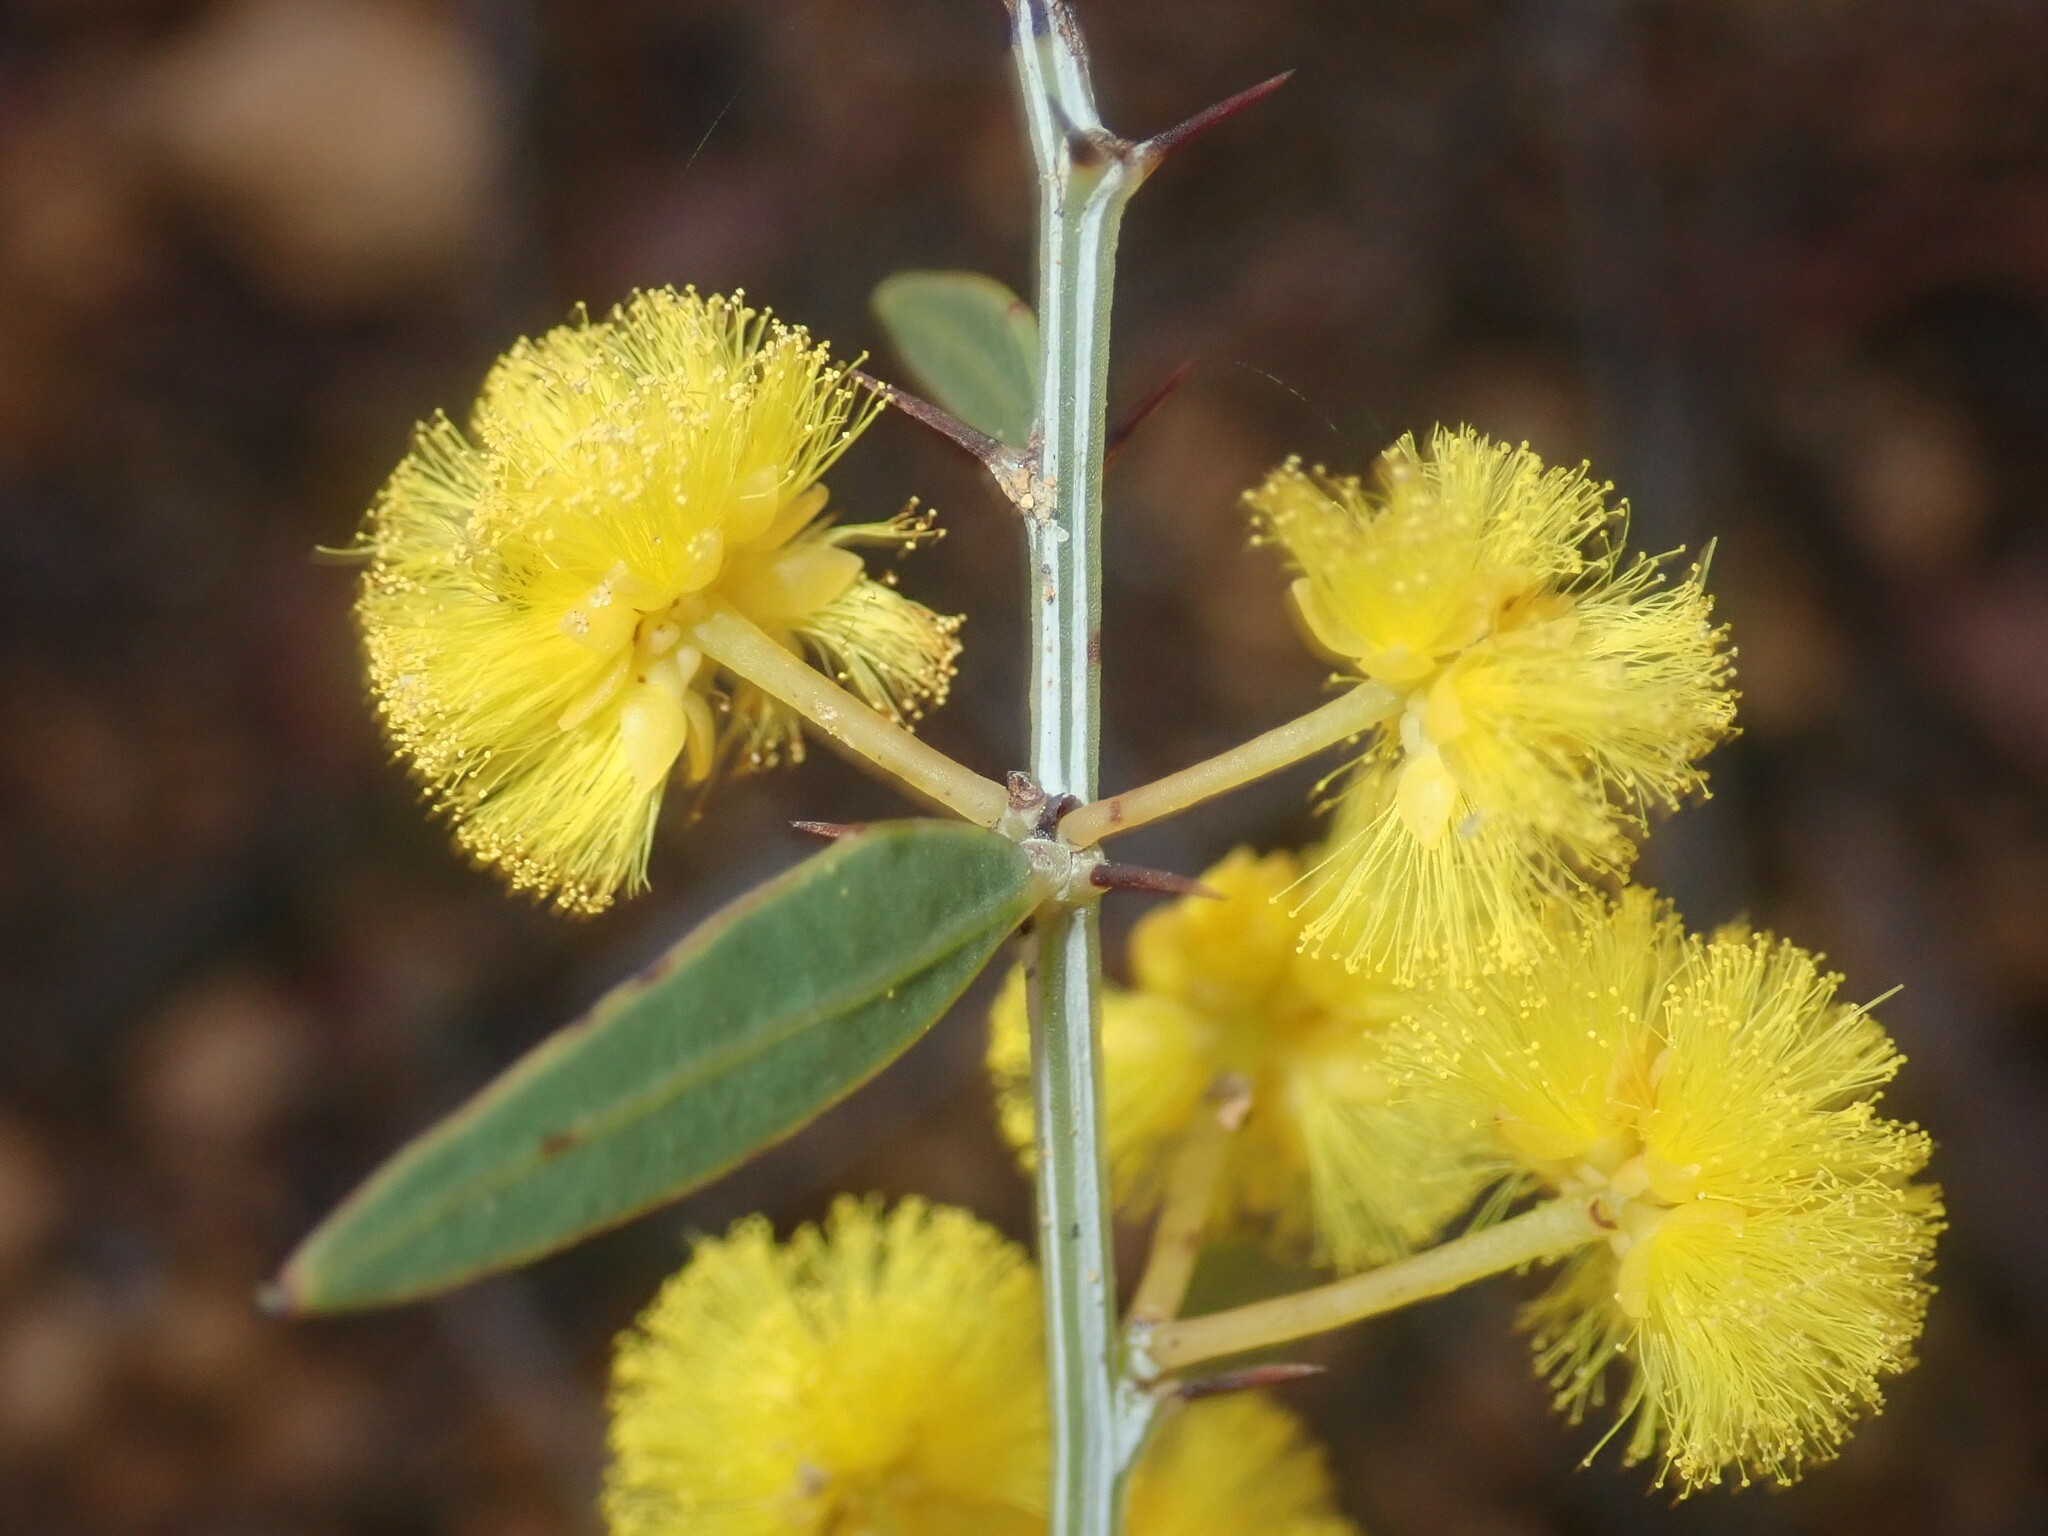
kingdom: Plantae
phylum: Tracheophyta
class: Magnoliopsida
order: Fabales
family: Fabaceae
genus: Acacia
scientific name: Acacia nervosa
